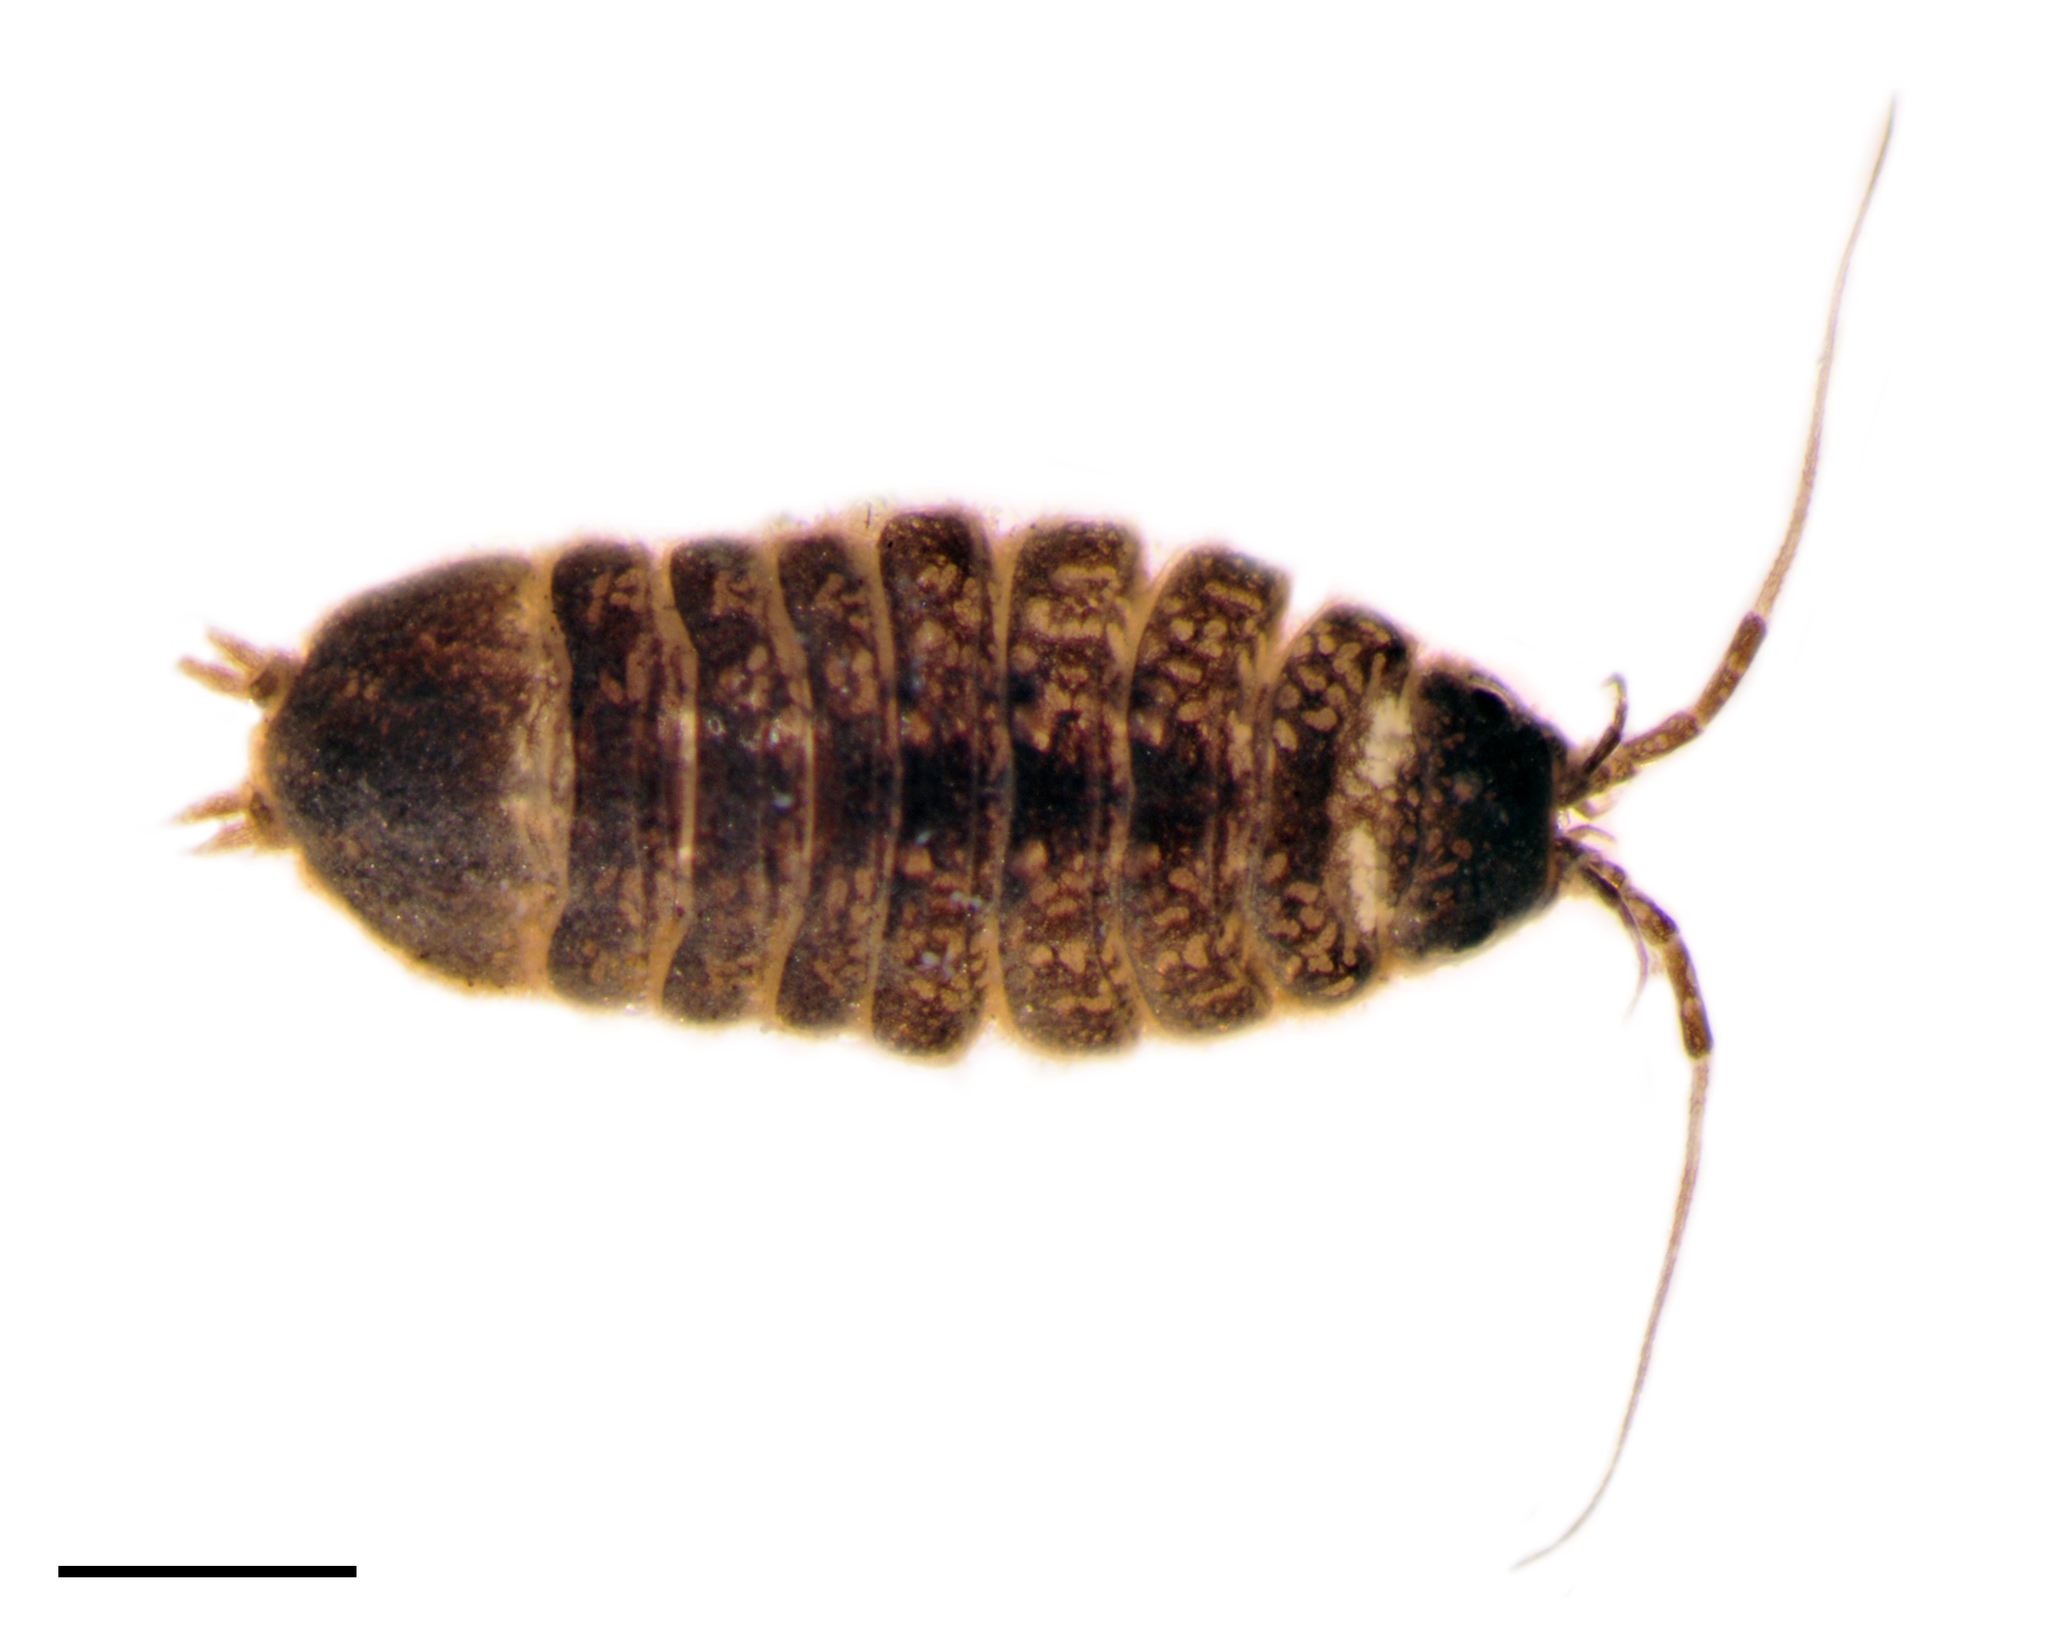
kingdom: Animalia
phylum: Arthropoda
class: Malacostraca
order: Isopoda
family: Asellidae
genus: Caecidotea
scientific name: Caecidotea brevicauda
